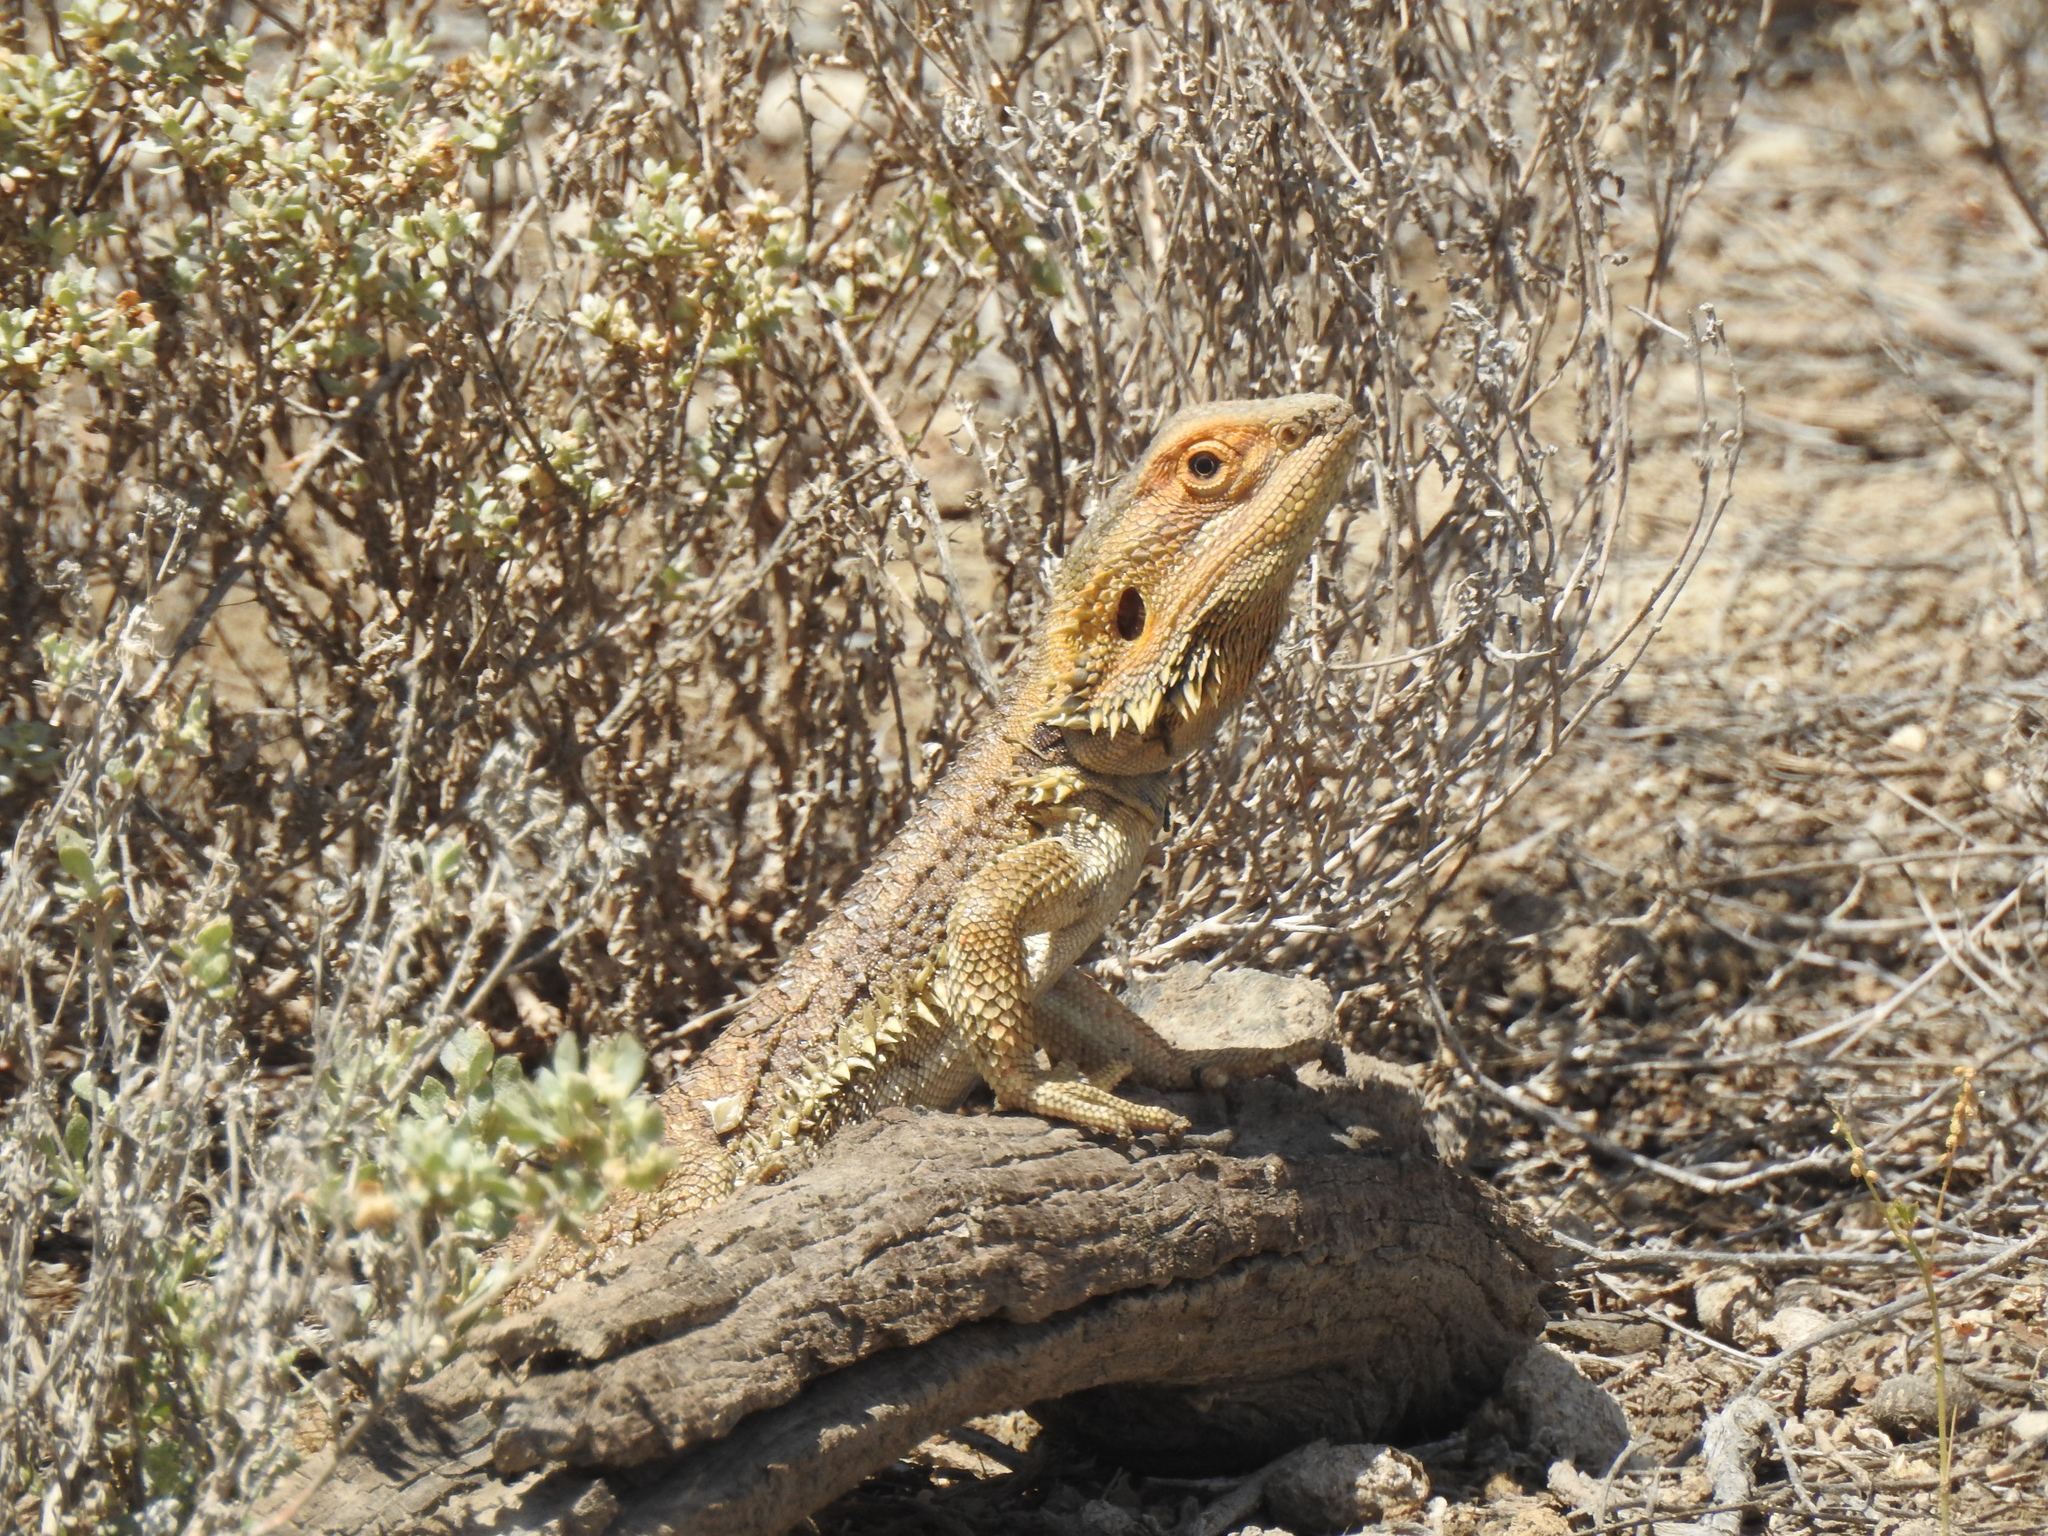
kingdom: Animalia
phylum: Chordata
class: Squamata
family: Agamidae
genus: Pogona
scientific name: Pogona vitticeps
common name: Central bearded dragon
